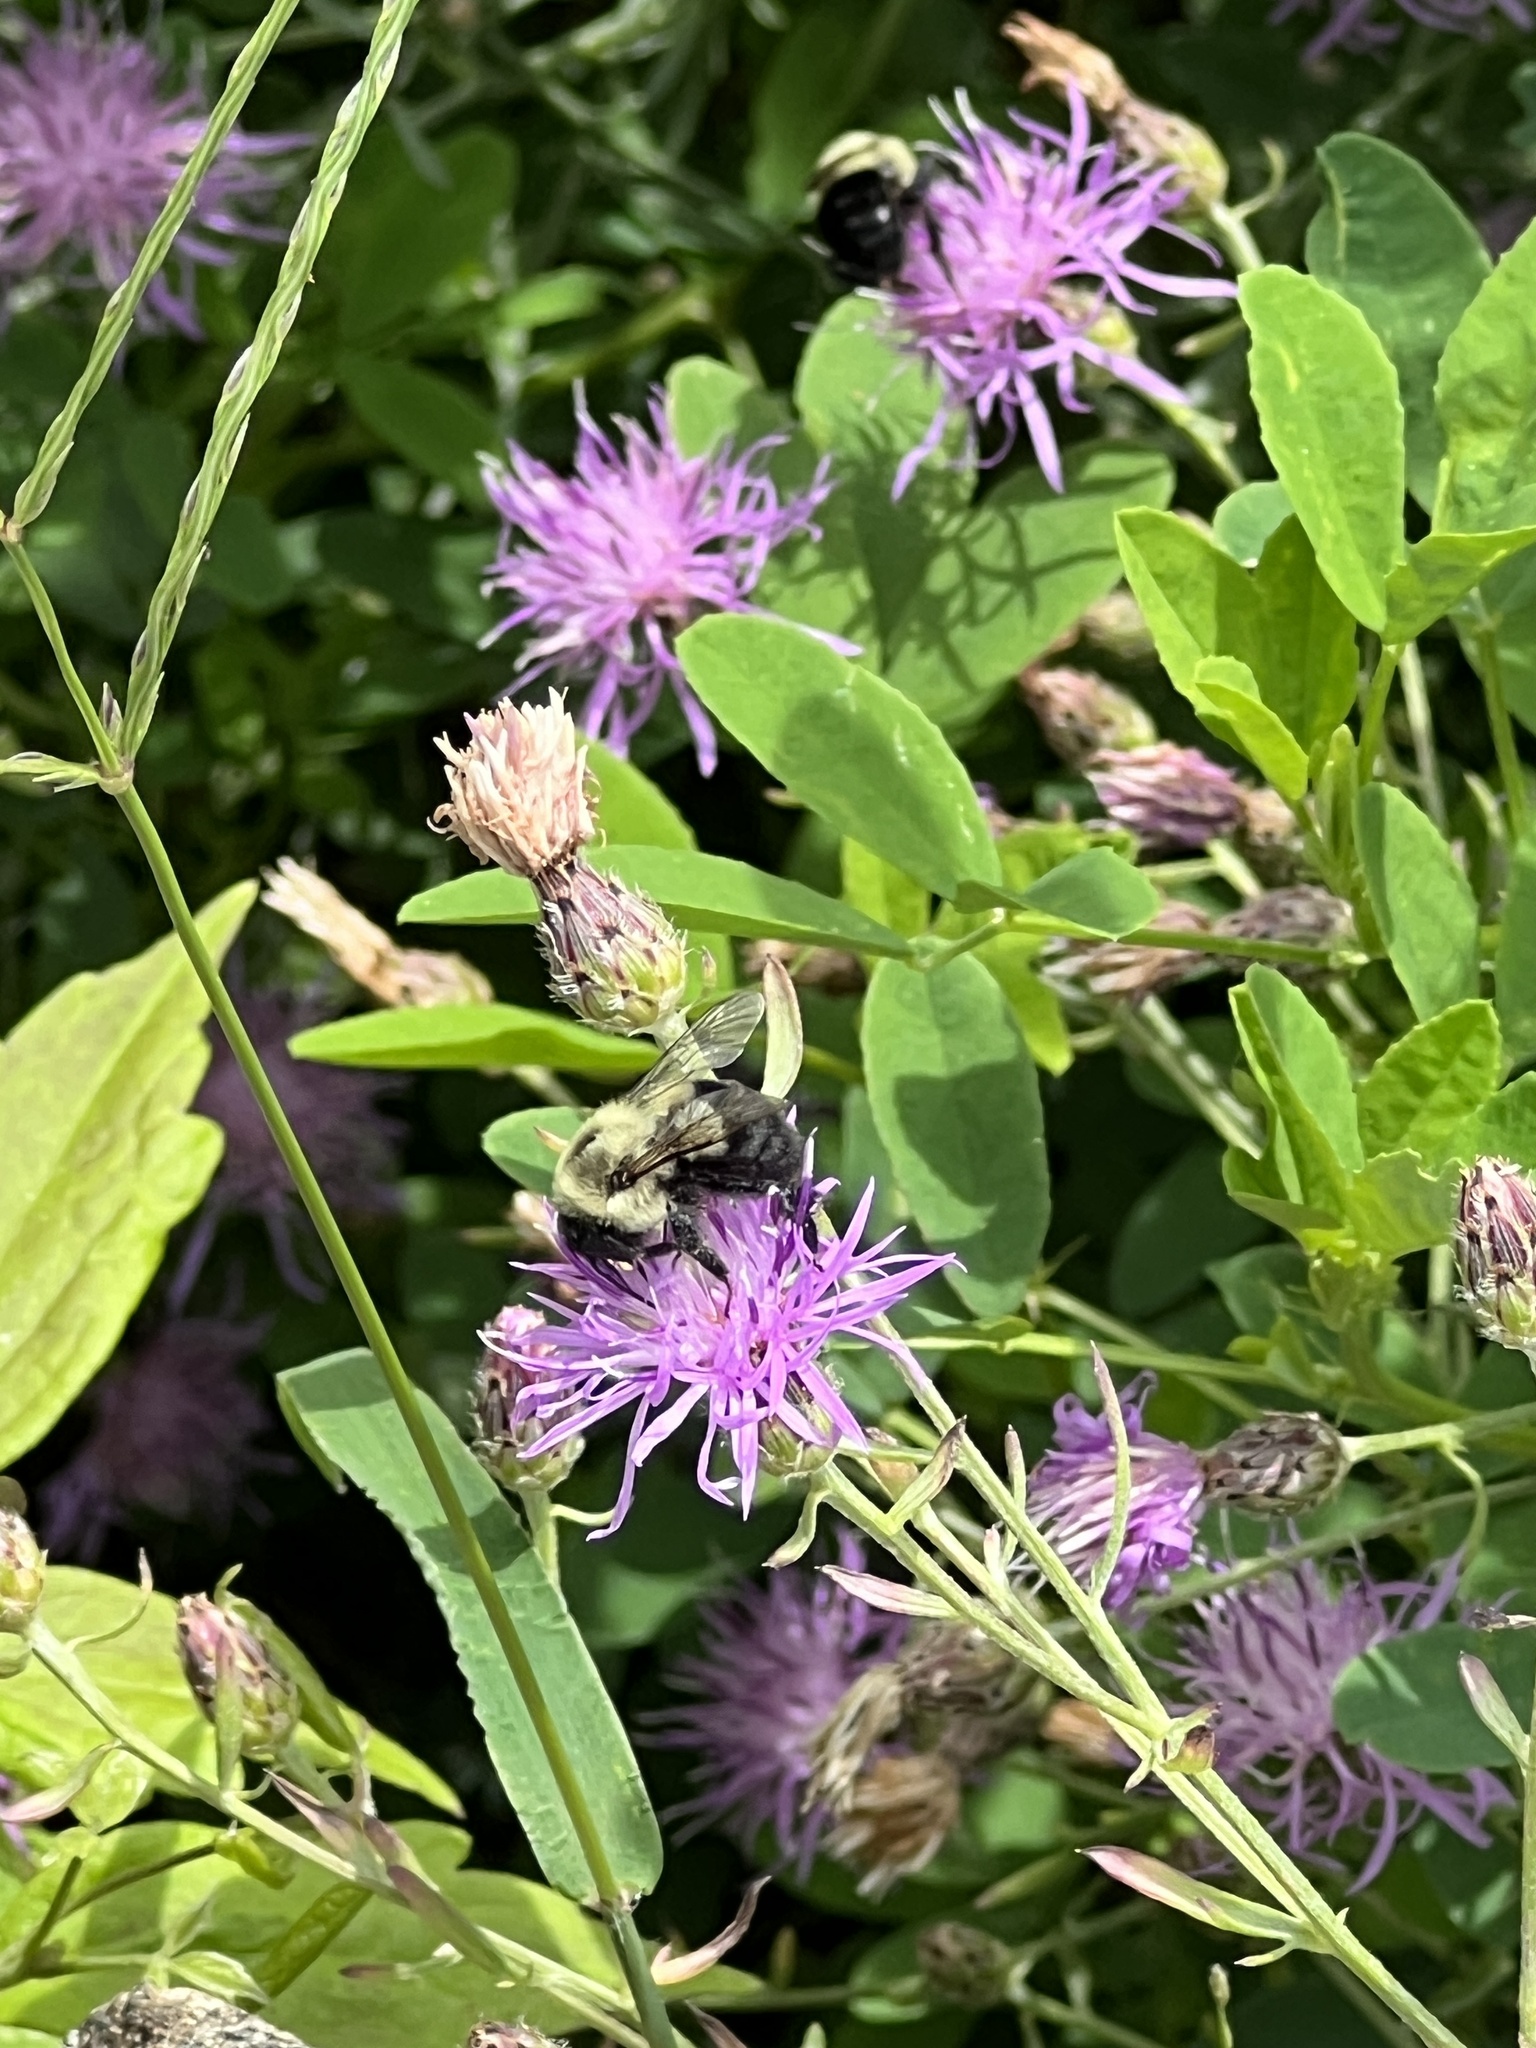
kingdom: Animalia
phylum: Arthropoda
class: Insecta
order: Hymenoptera
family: Apidae
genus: Bombus
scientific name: Bombus impatiens
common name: Common eastern bumble bee
